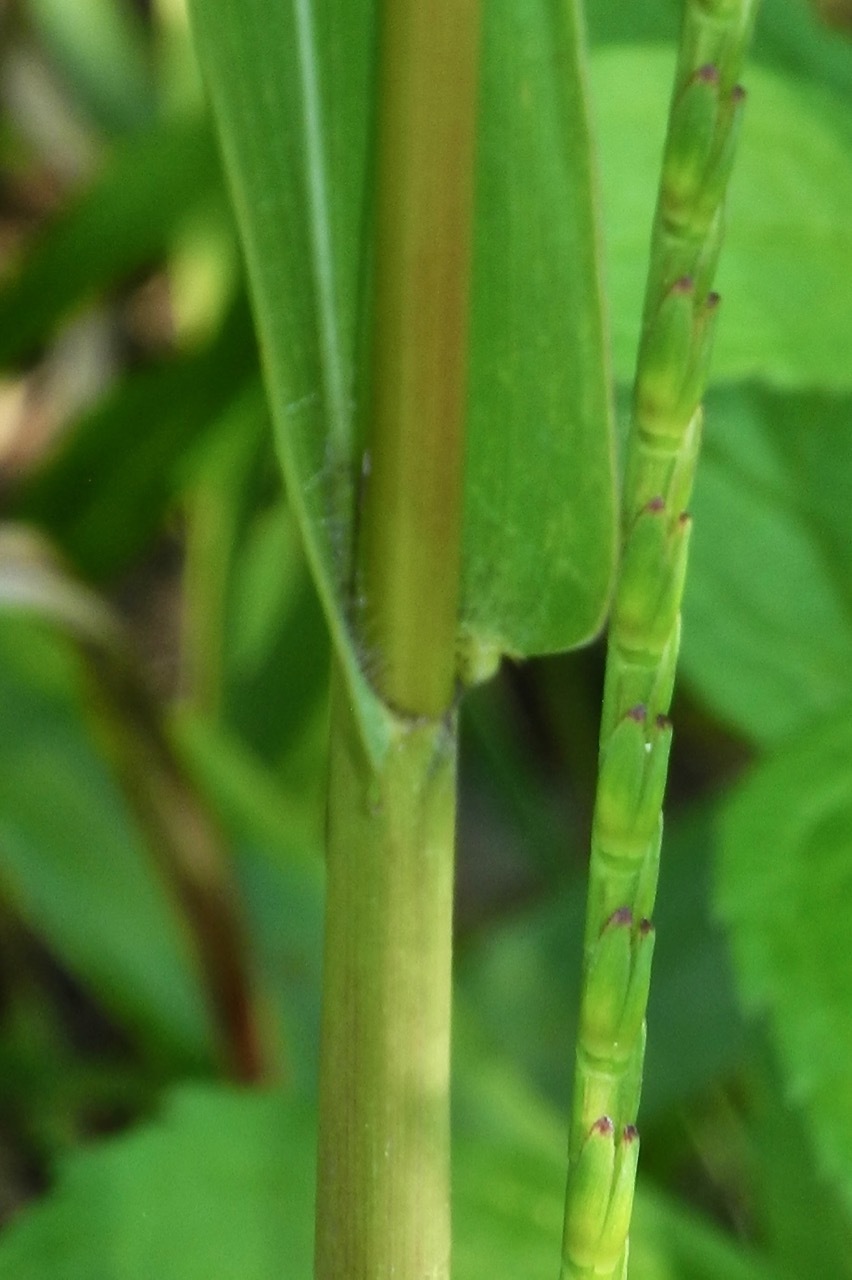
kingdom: Plantae
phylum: Tracheophyta
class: Liliopsida
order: Poales
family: Poaceae
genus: Tripsacum
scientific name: Tripsacum dactyloides
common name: Buffalo-grass
